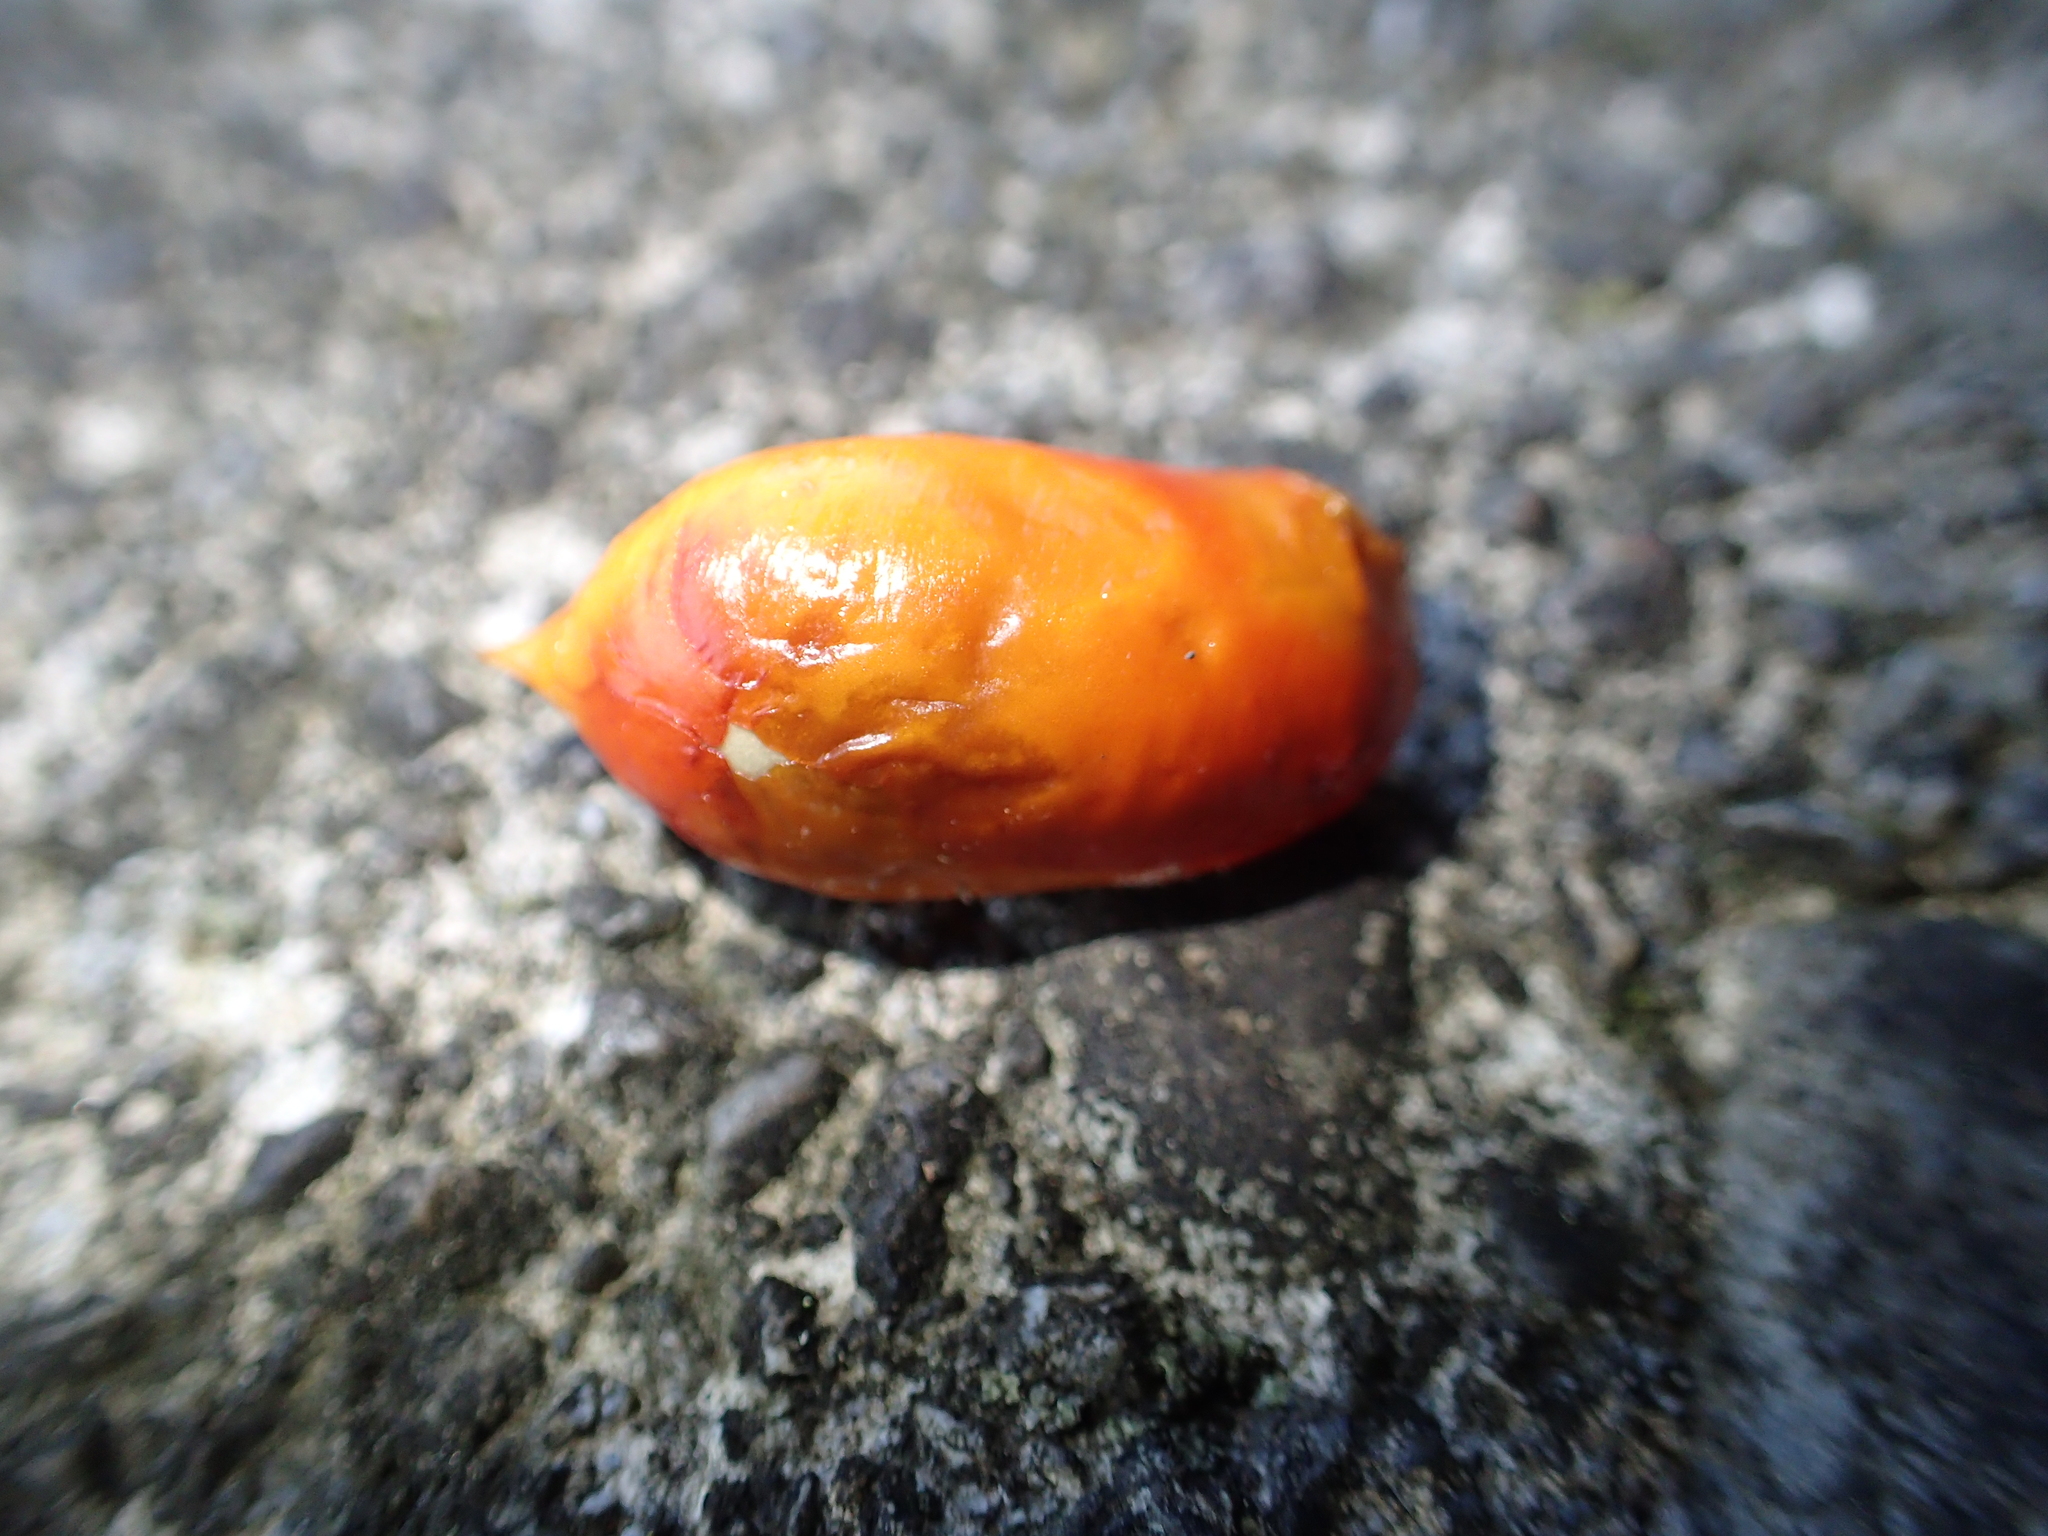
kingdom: Plantae
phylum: Tracheophyta
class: Magnoliopsida
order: Sapindales
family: Meliaceae
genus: Didymocheton
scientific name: Didymocheton spectabilis
